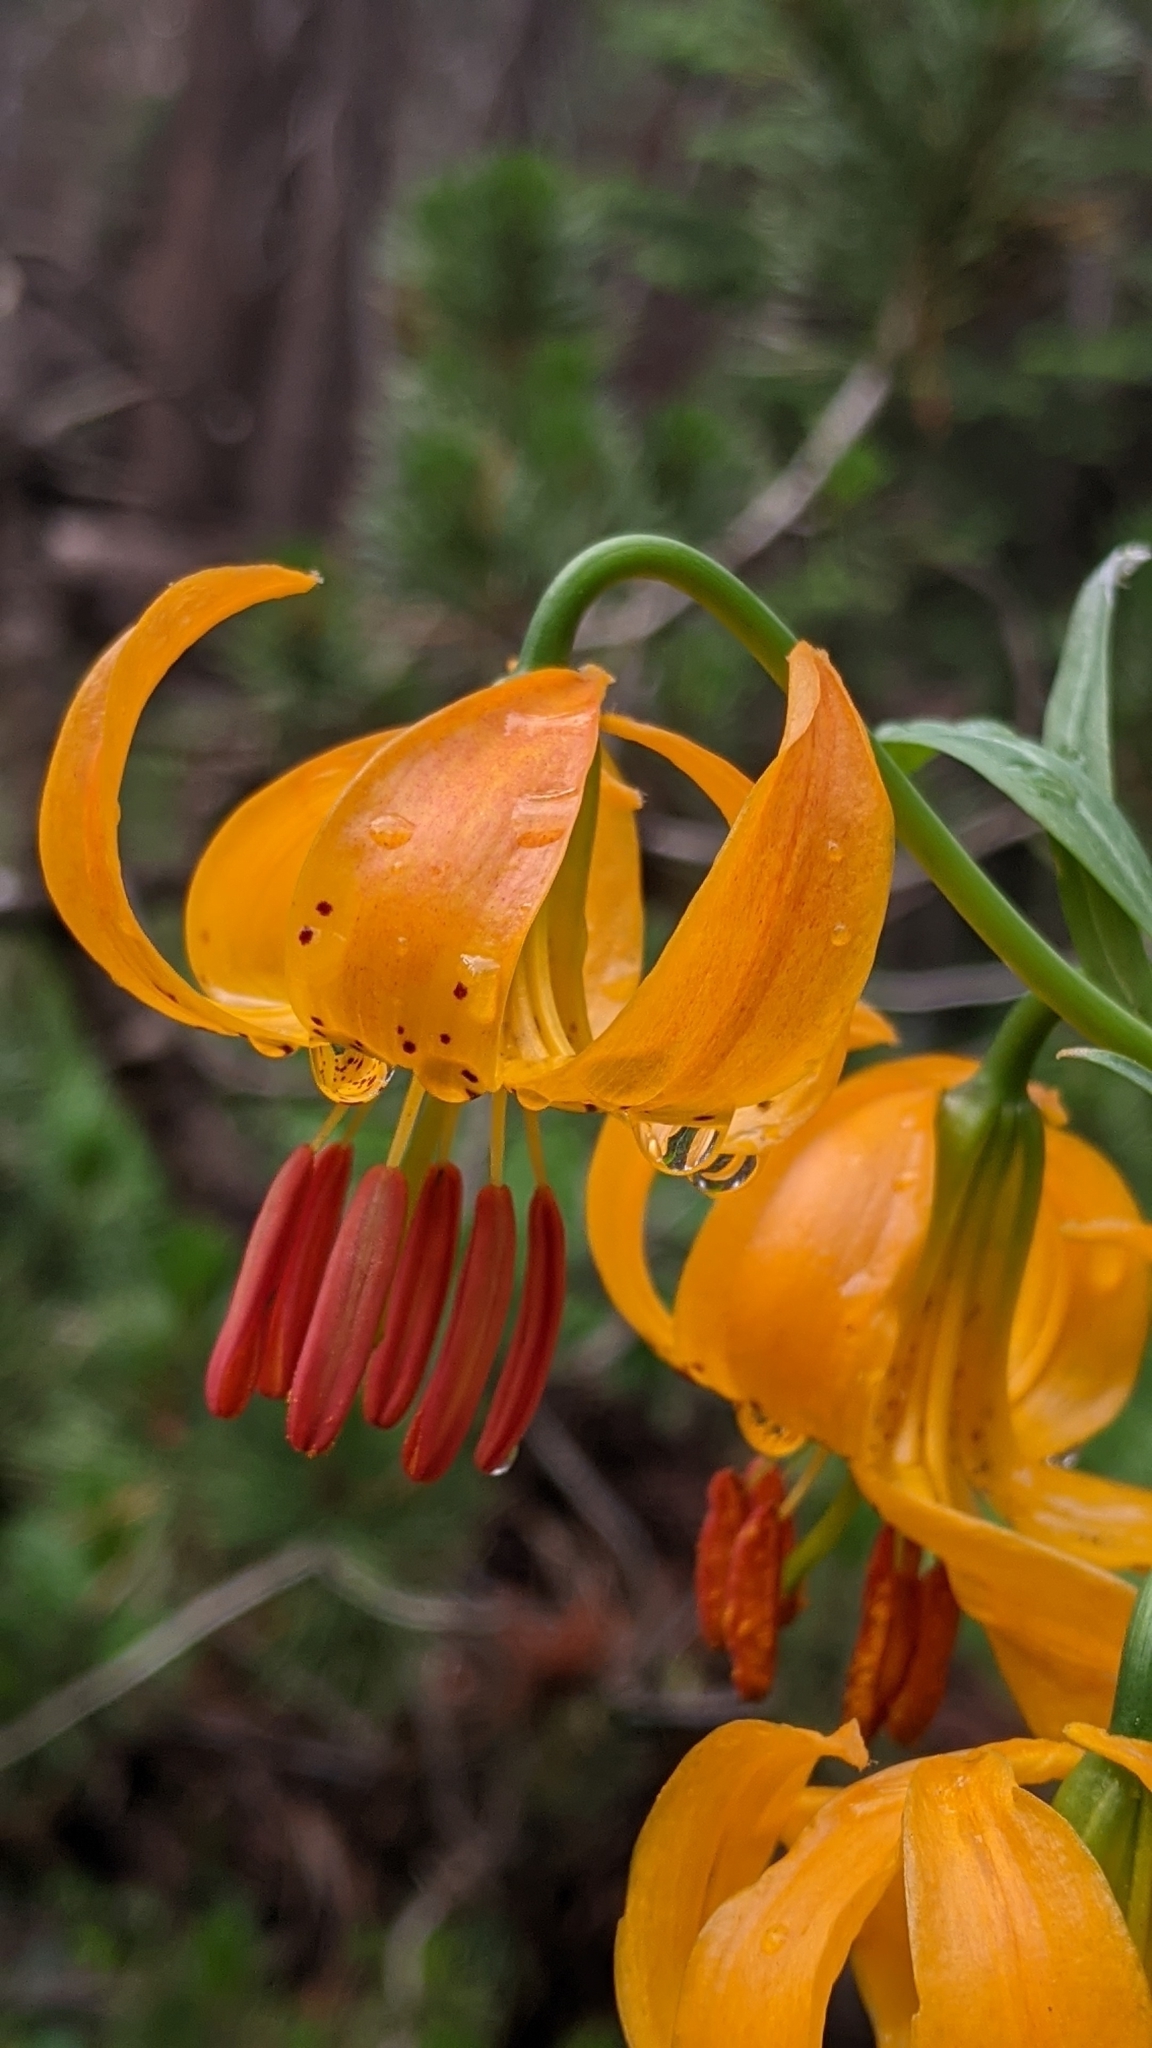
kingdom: Plantae
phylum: Tracheophyta
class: Liliopsida
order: Liliales
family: Liliaceae
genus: Lilium
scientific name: Lilium kelleyanum
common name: Kelley's lily
